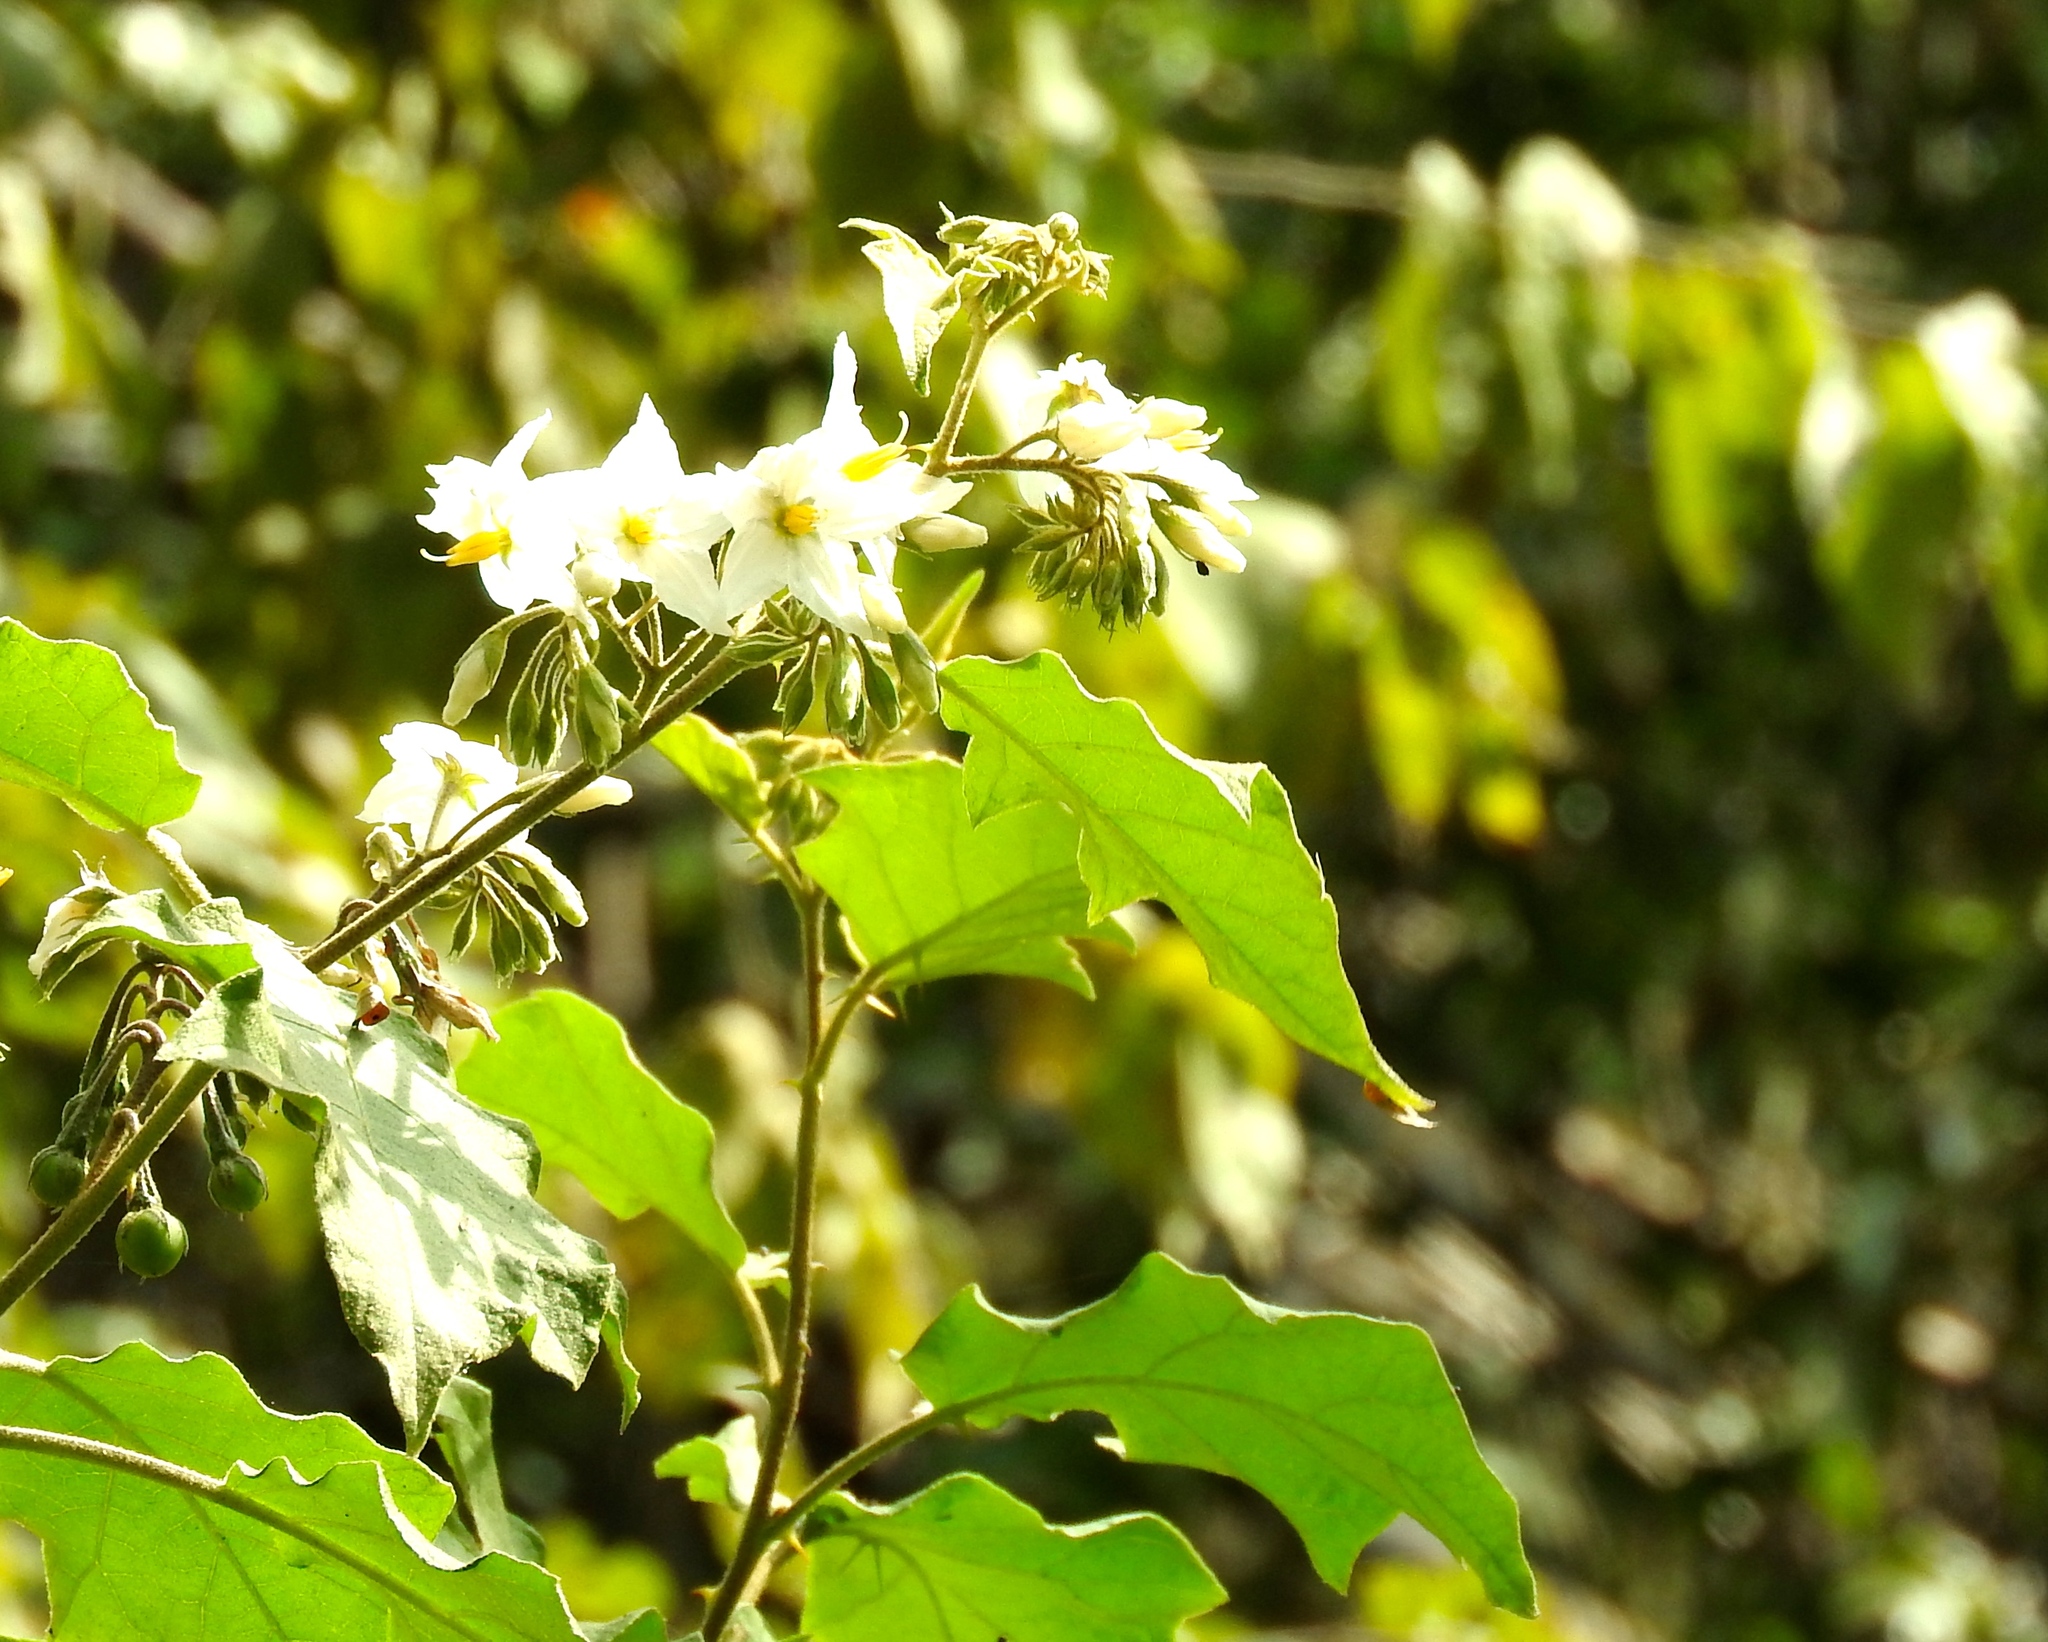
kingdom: Plantae
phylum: Tracheophyta
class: Magnoliopsida
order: Solanales
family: Solanaceae
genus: Solanum
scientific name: Solanum ferrugineum
